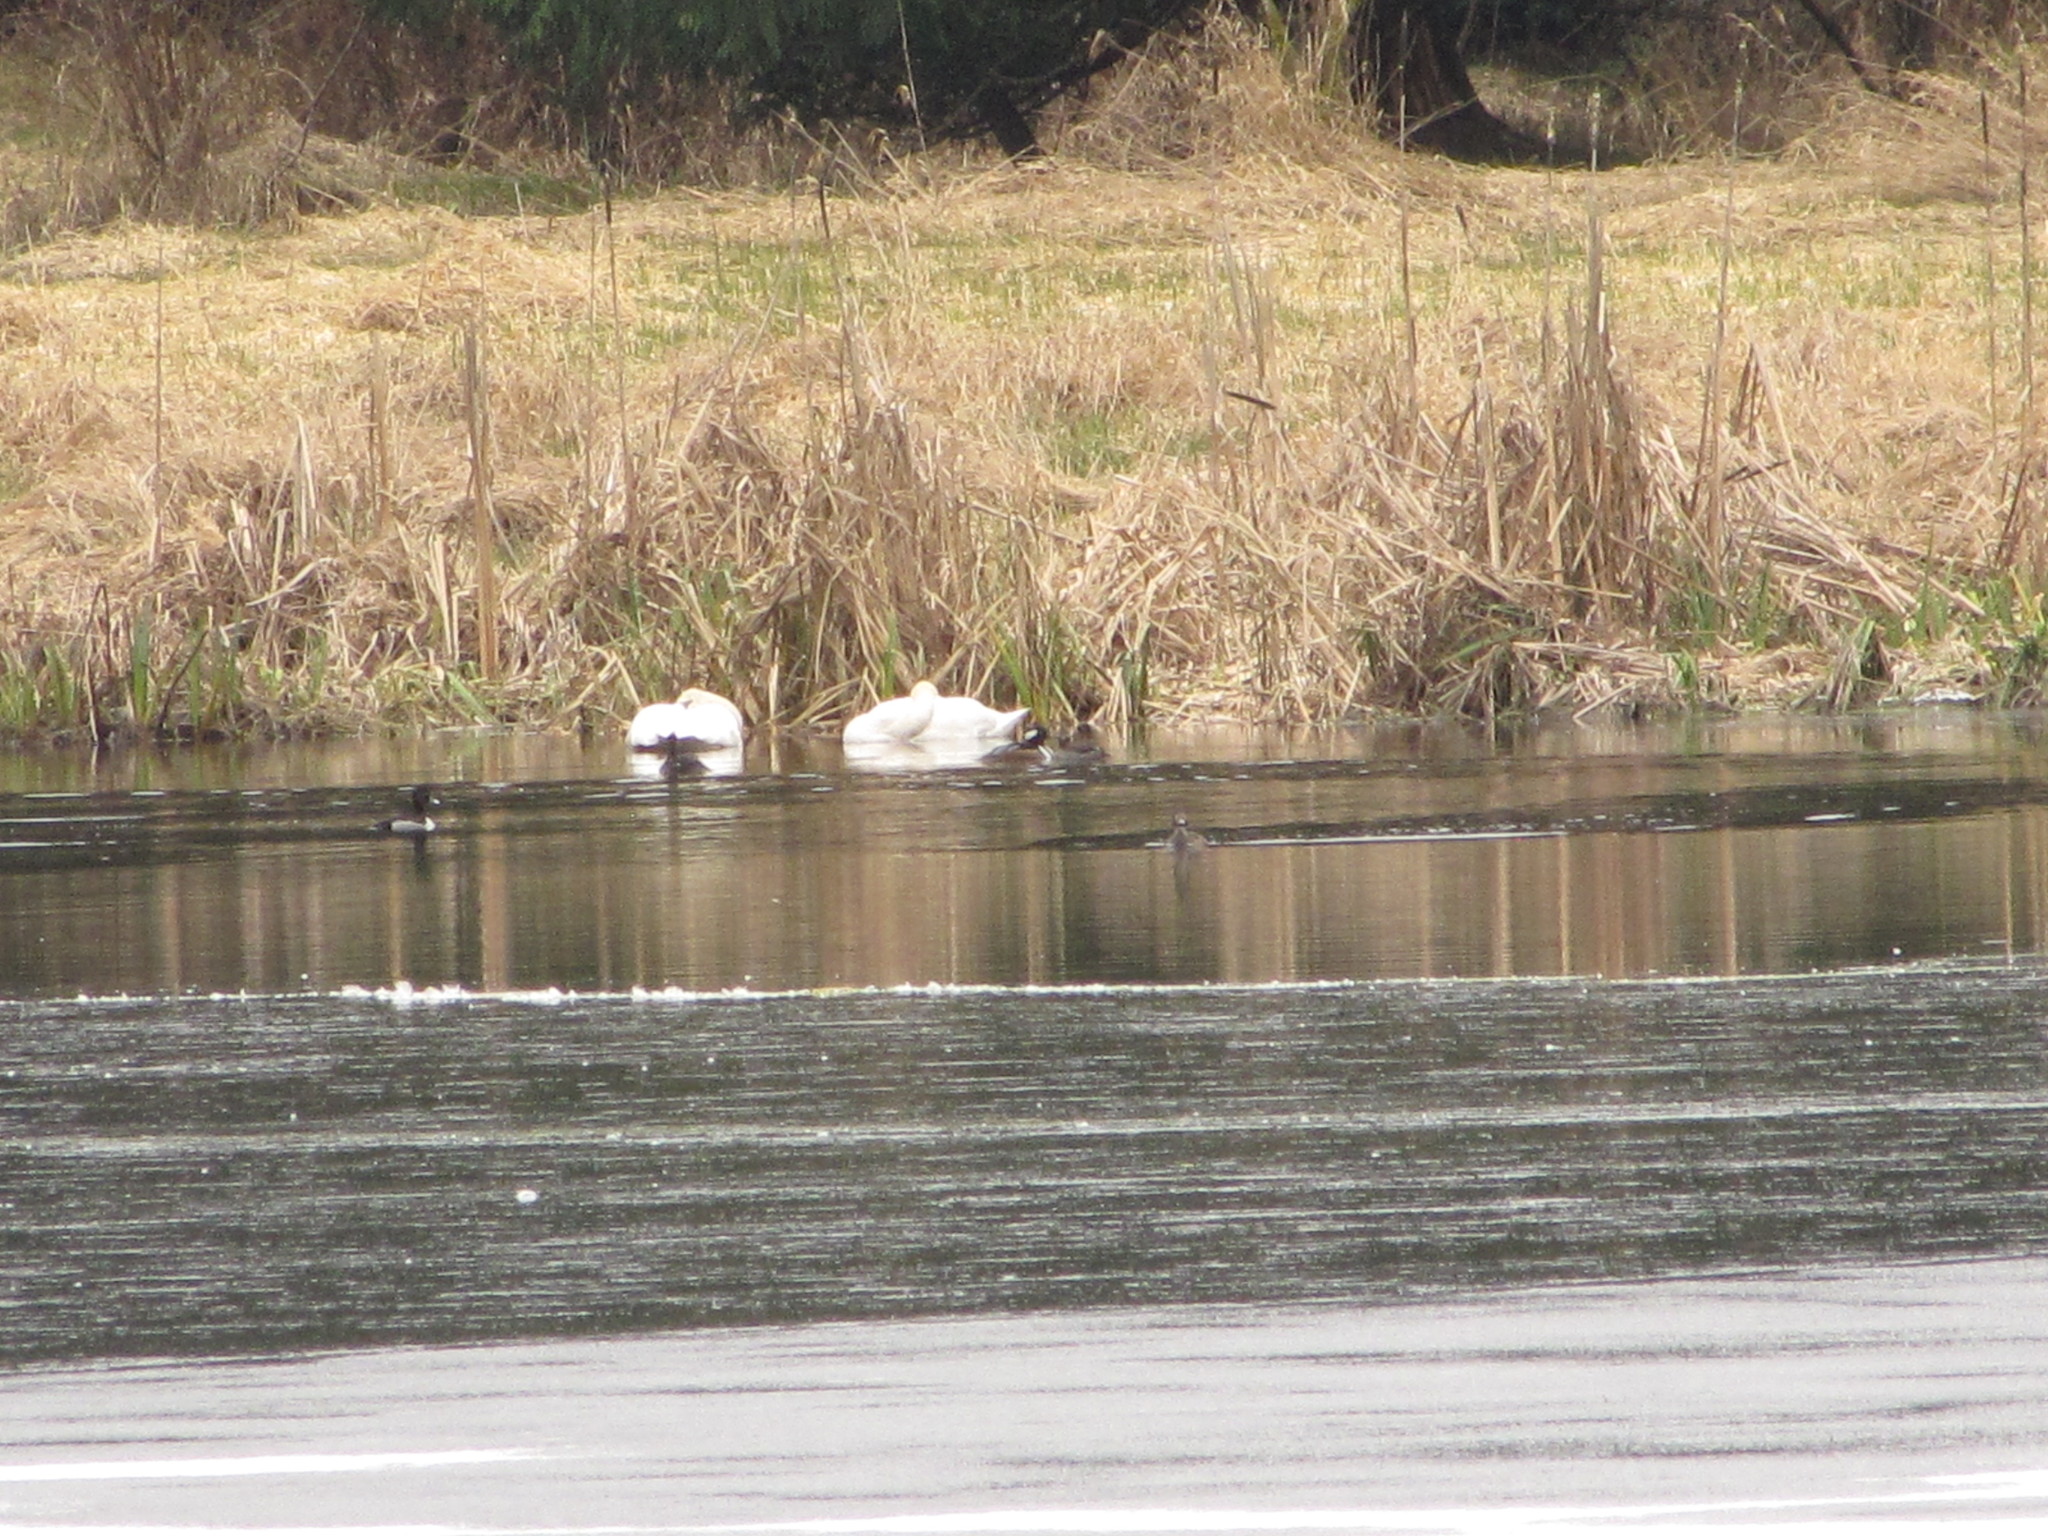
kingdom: Animalia
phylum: Chordata
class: Aves
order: Anseriformes
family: Anatidae
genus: Cygnus
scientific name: Cygnus buccinator
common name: Trumpeter swan
